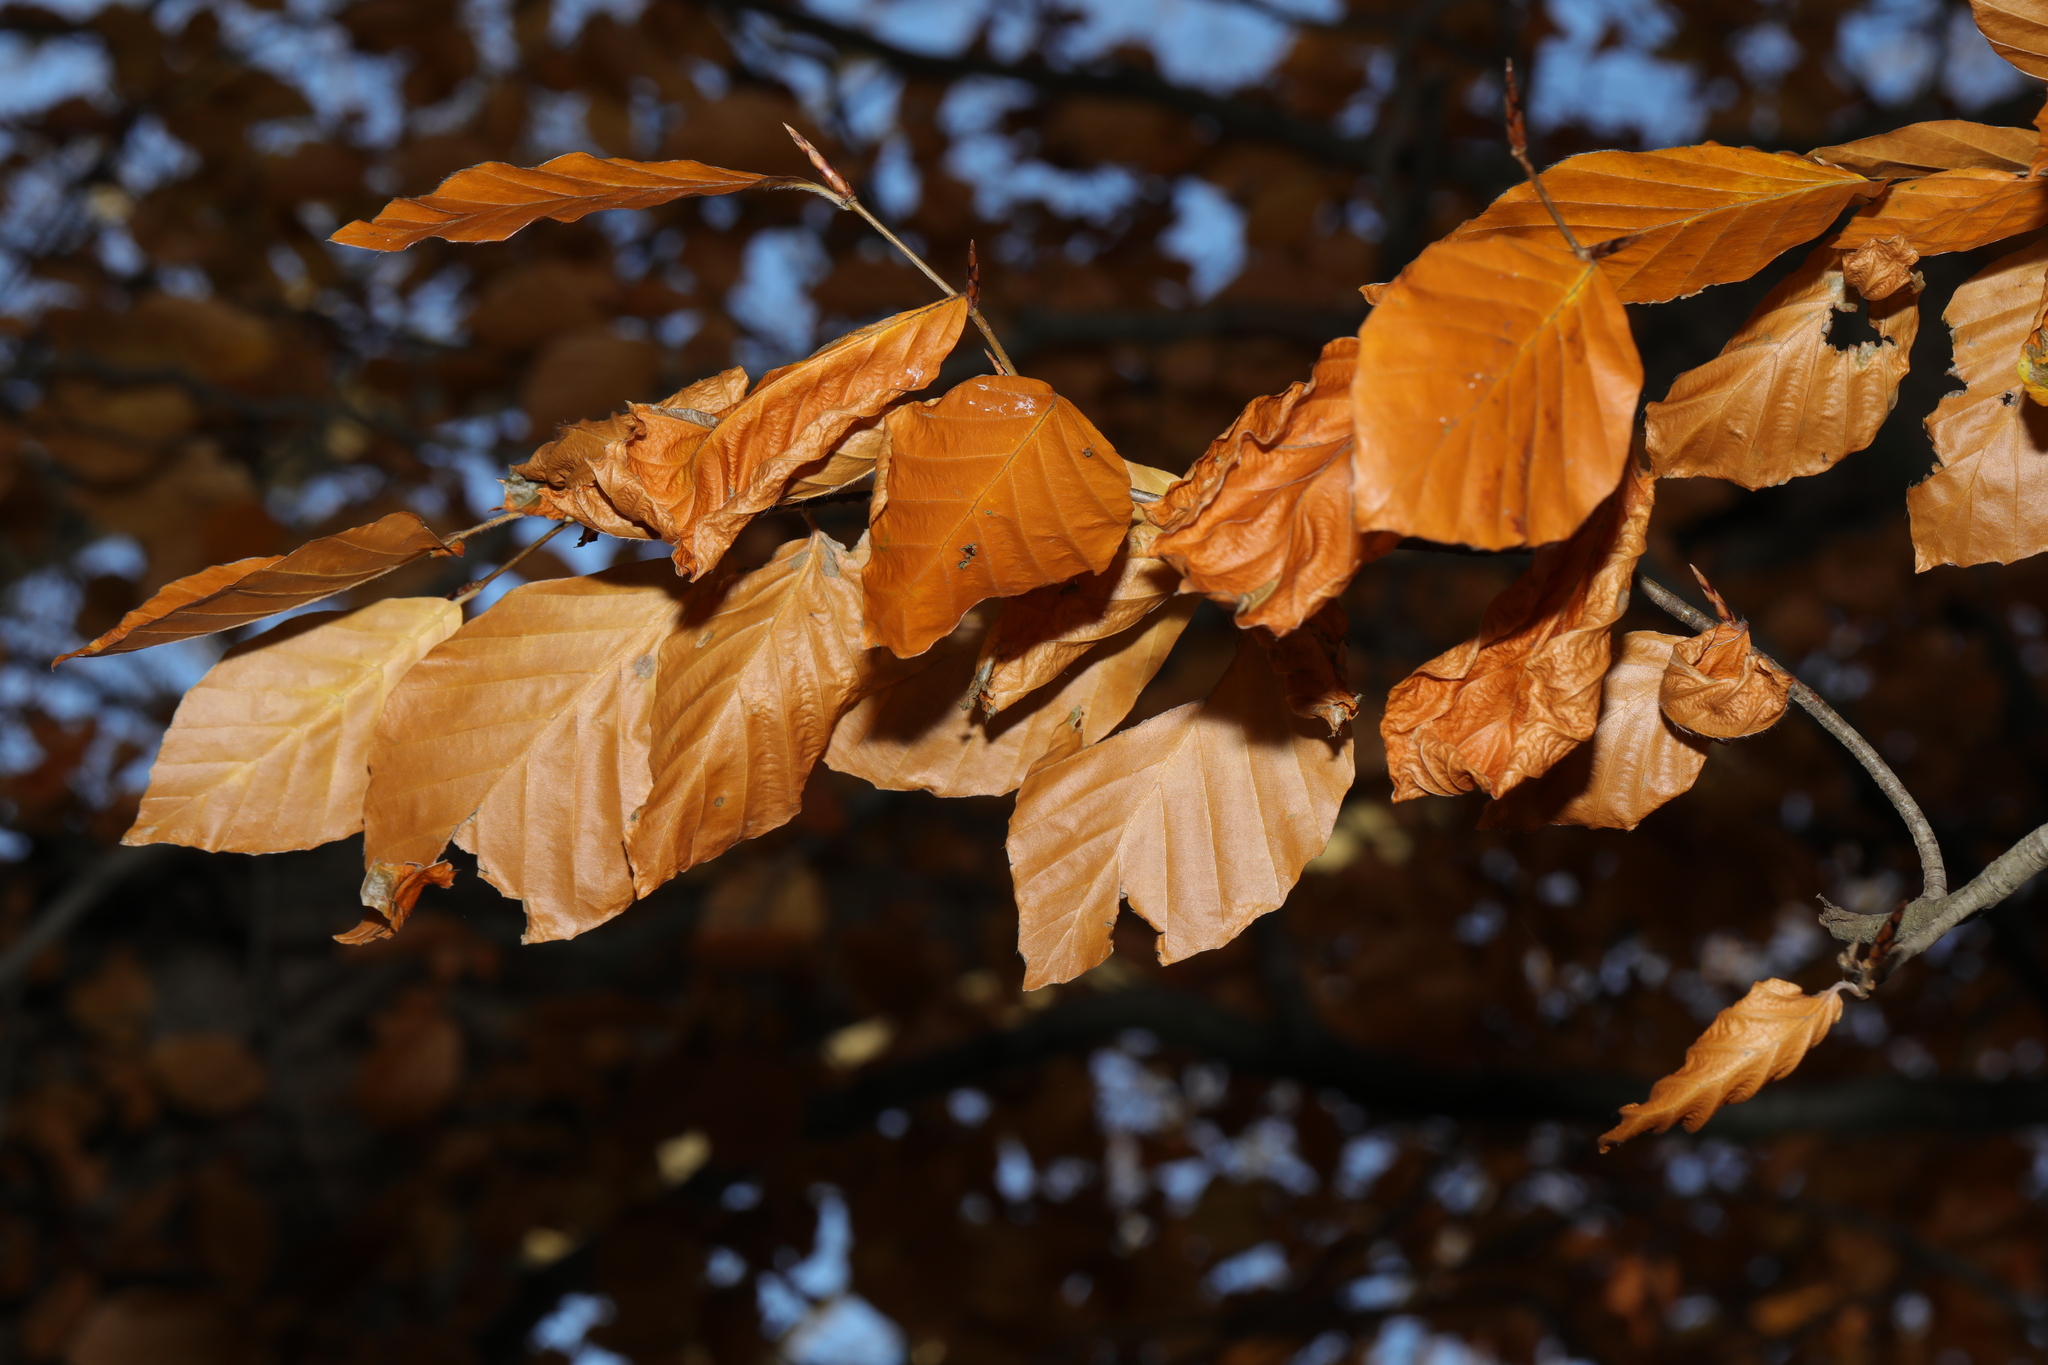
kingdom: Plantae
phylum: Tracheophyta
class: Magnoliopsida
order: Fagales
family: Fagaceae
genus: Fagus
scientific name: Fagus sylvatica
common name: Beech
